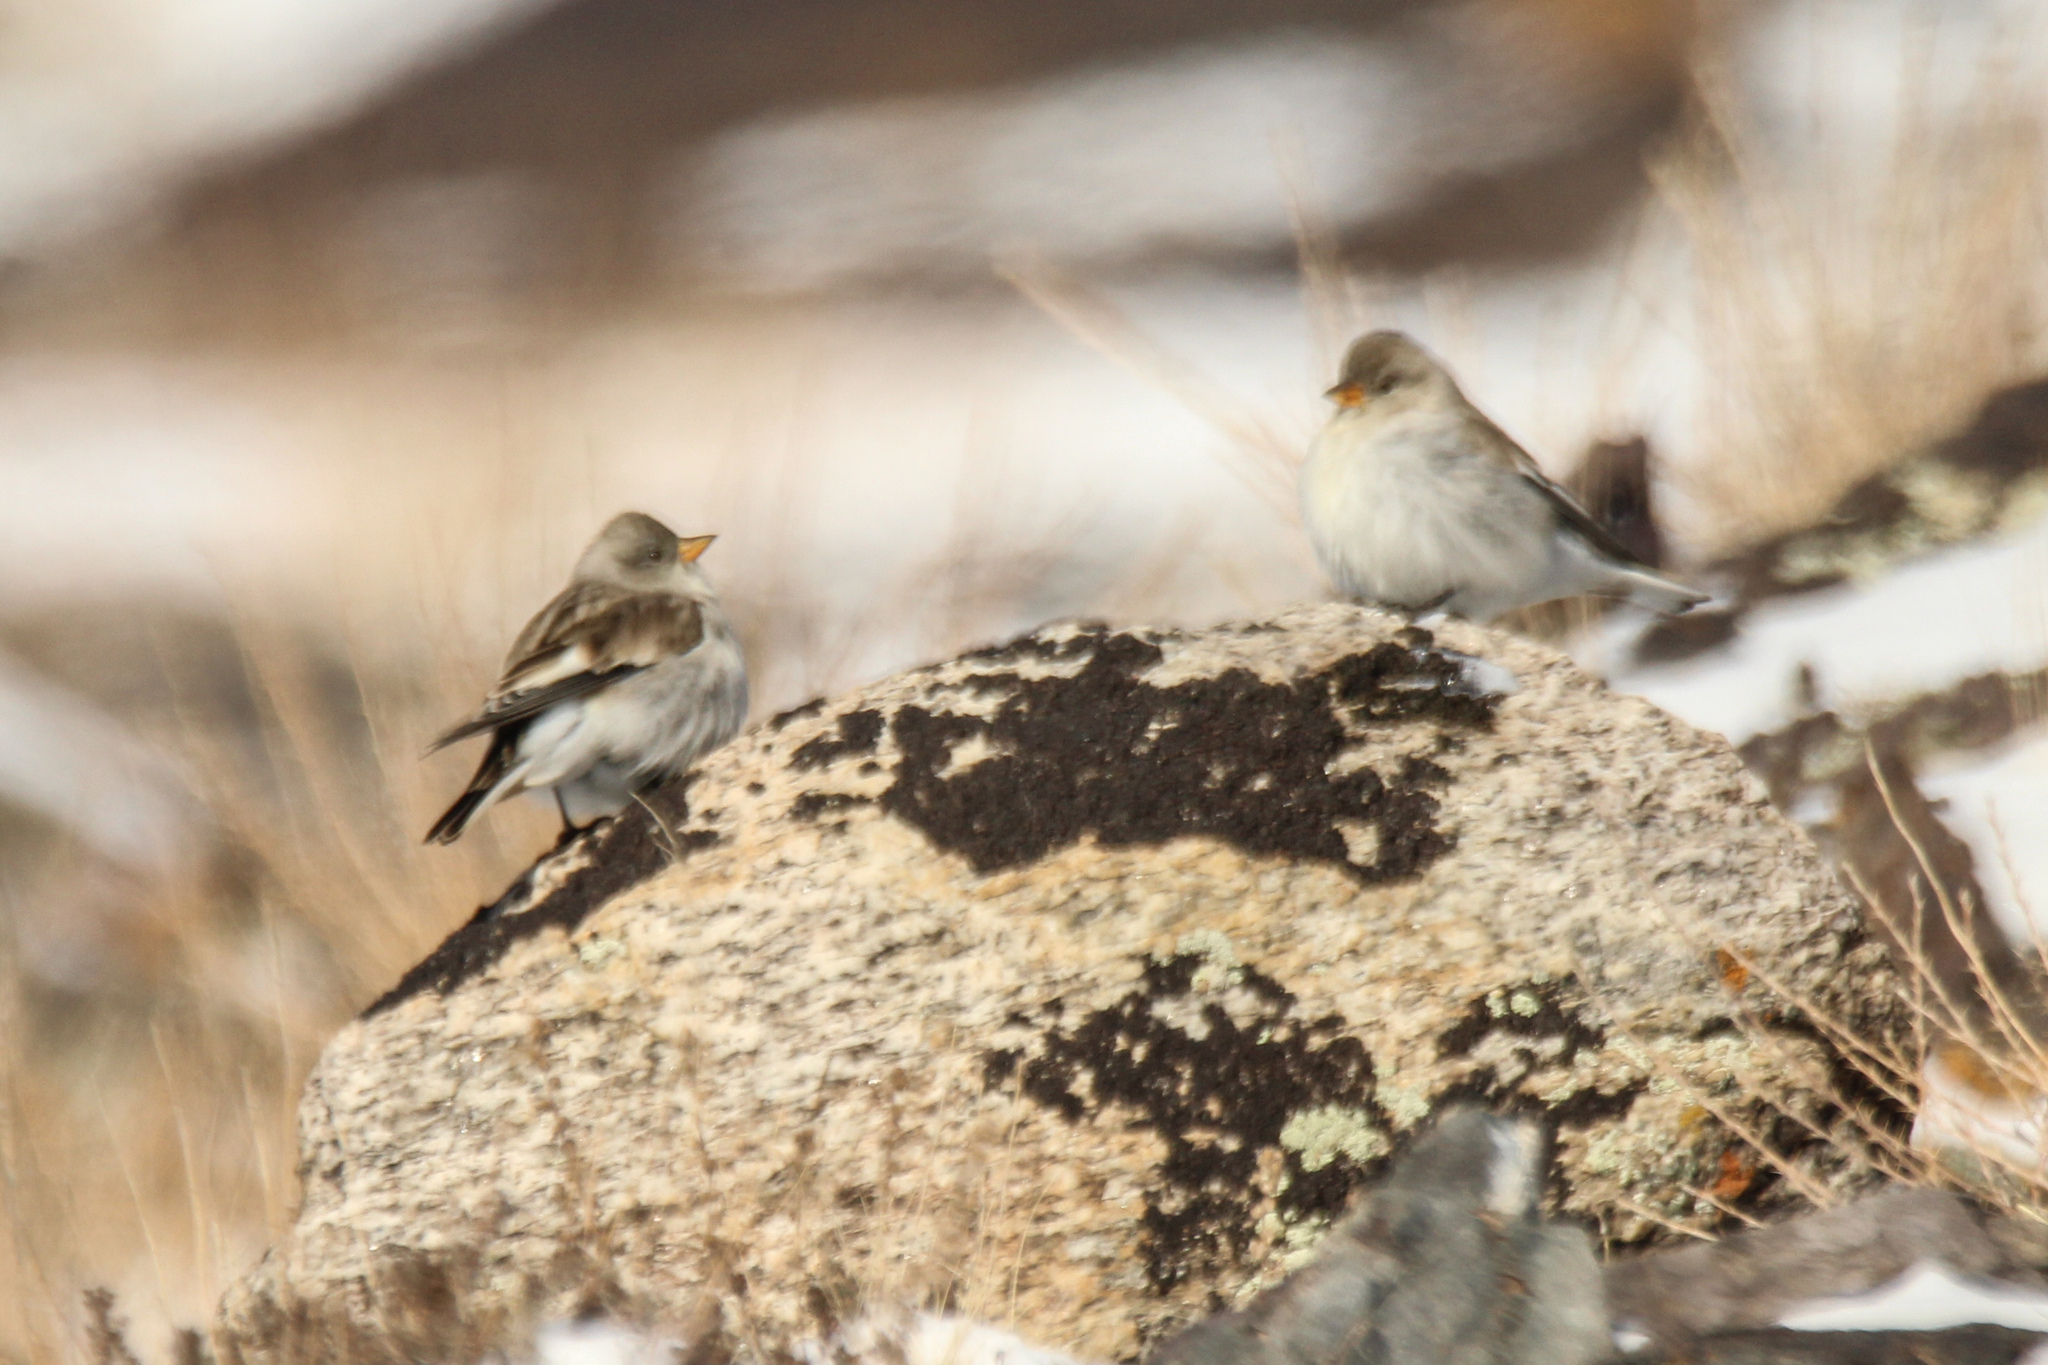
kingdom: Animalia
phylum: Chordata
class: Aves
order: Passeriformes
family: Passeridae
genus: Montifringilla
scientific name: Montifringilla nivalis
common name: White-winged snowfinch
